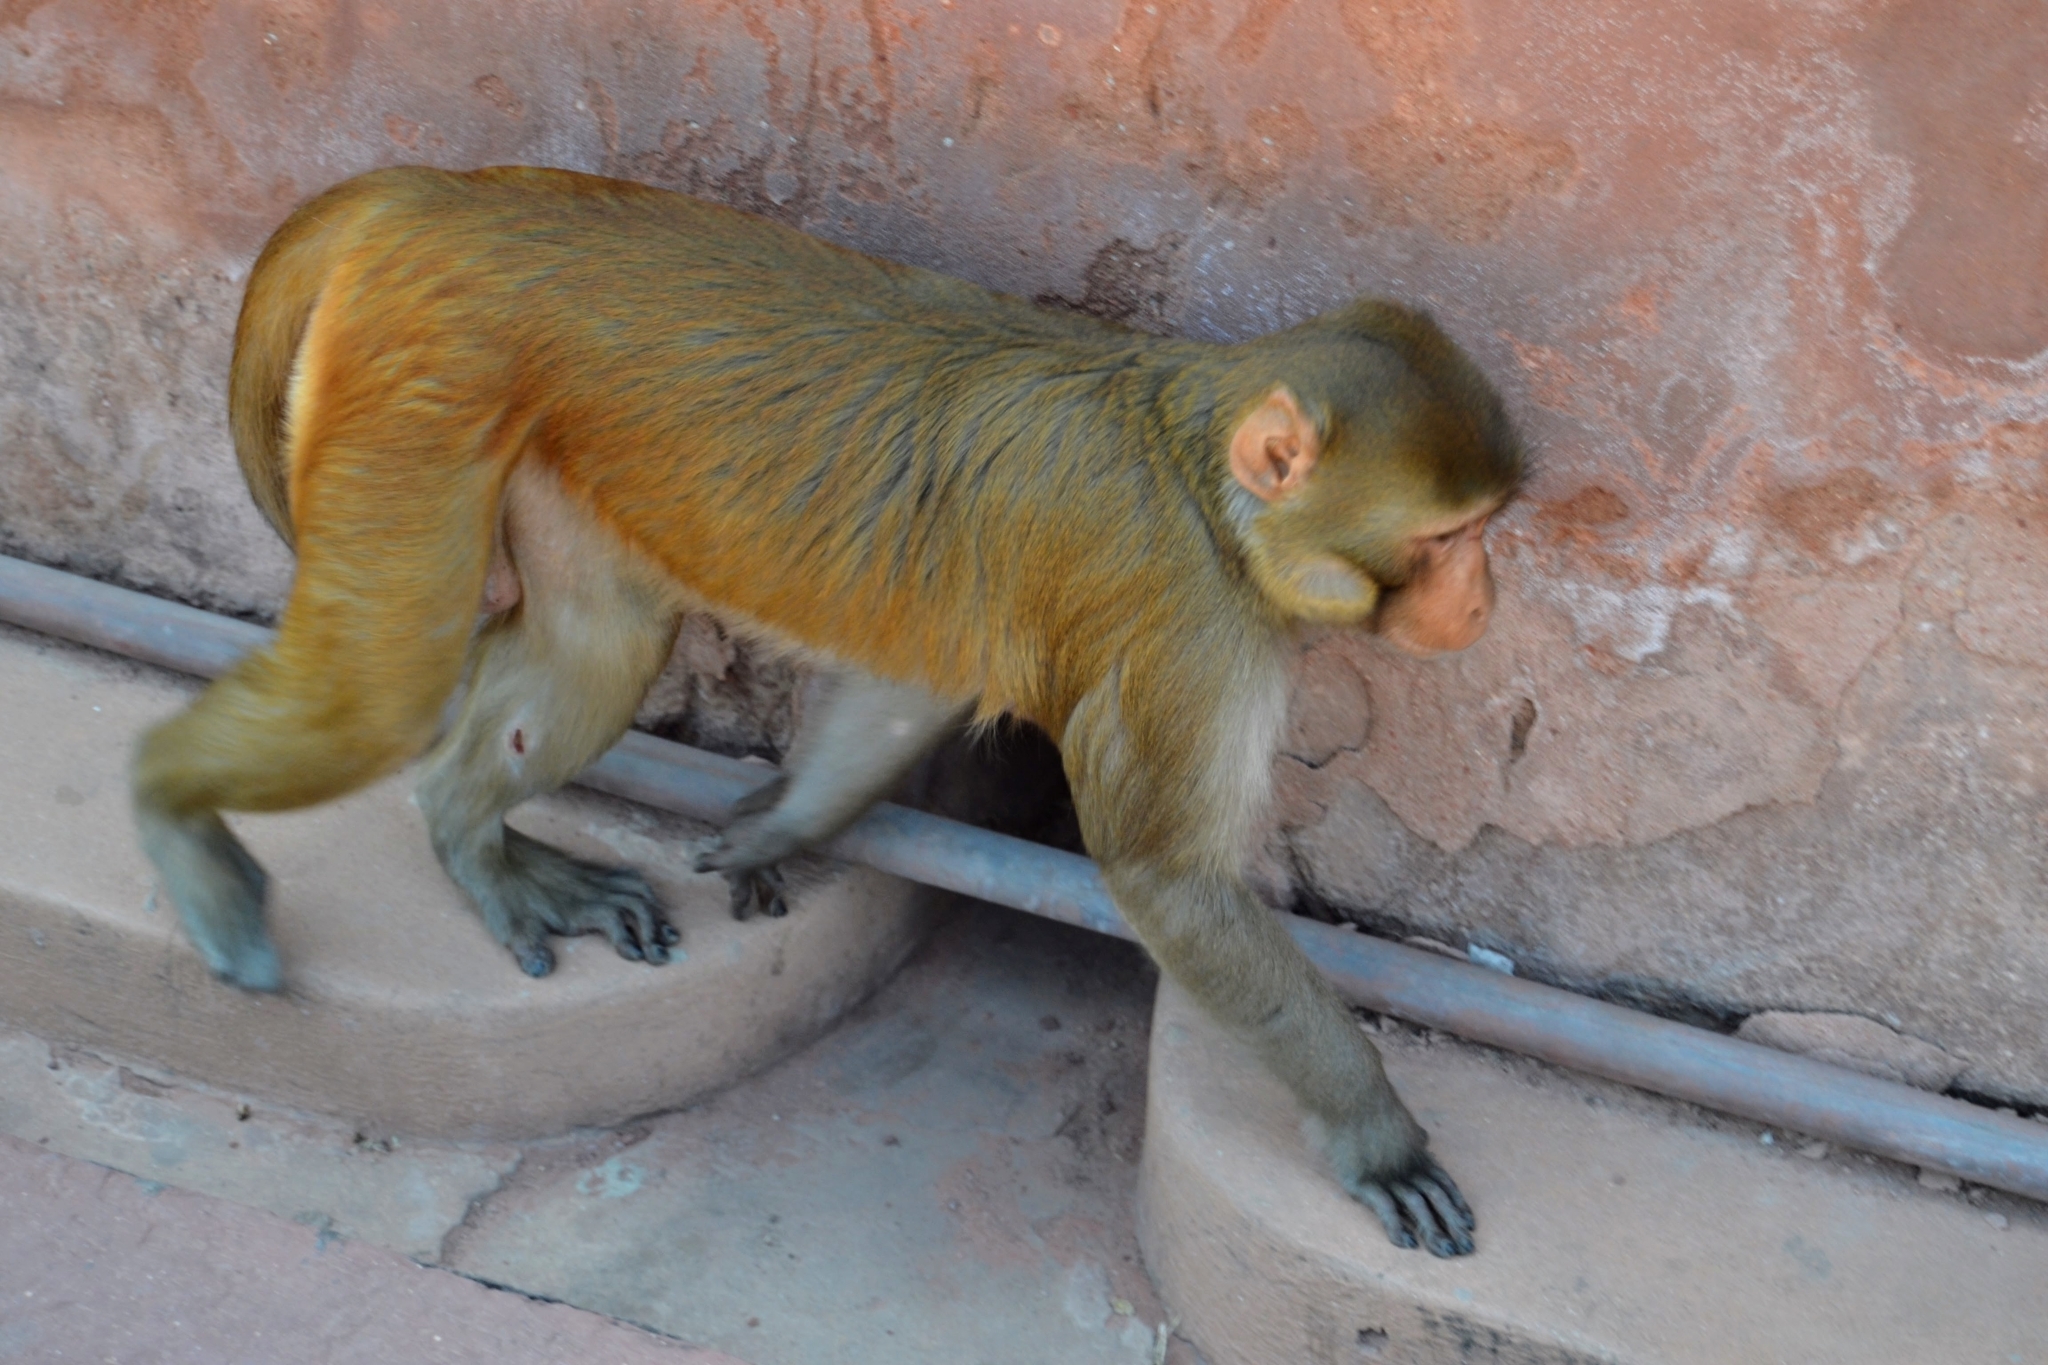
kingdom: Animalia
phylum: Chordata
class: Mammalia
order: Primates
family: Cercopithecidae
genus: Macaca
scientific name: Macaca mulatta
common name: Rhesus monkey
